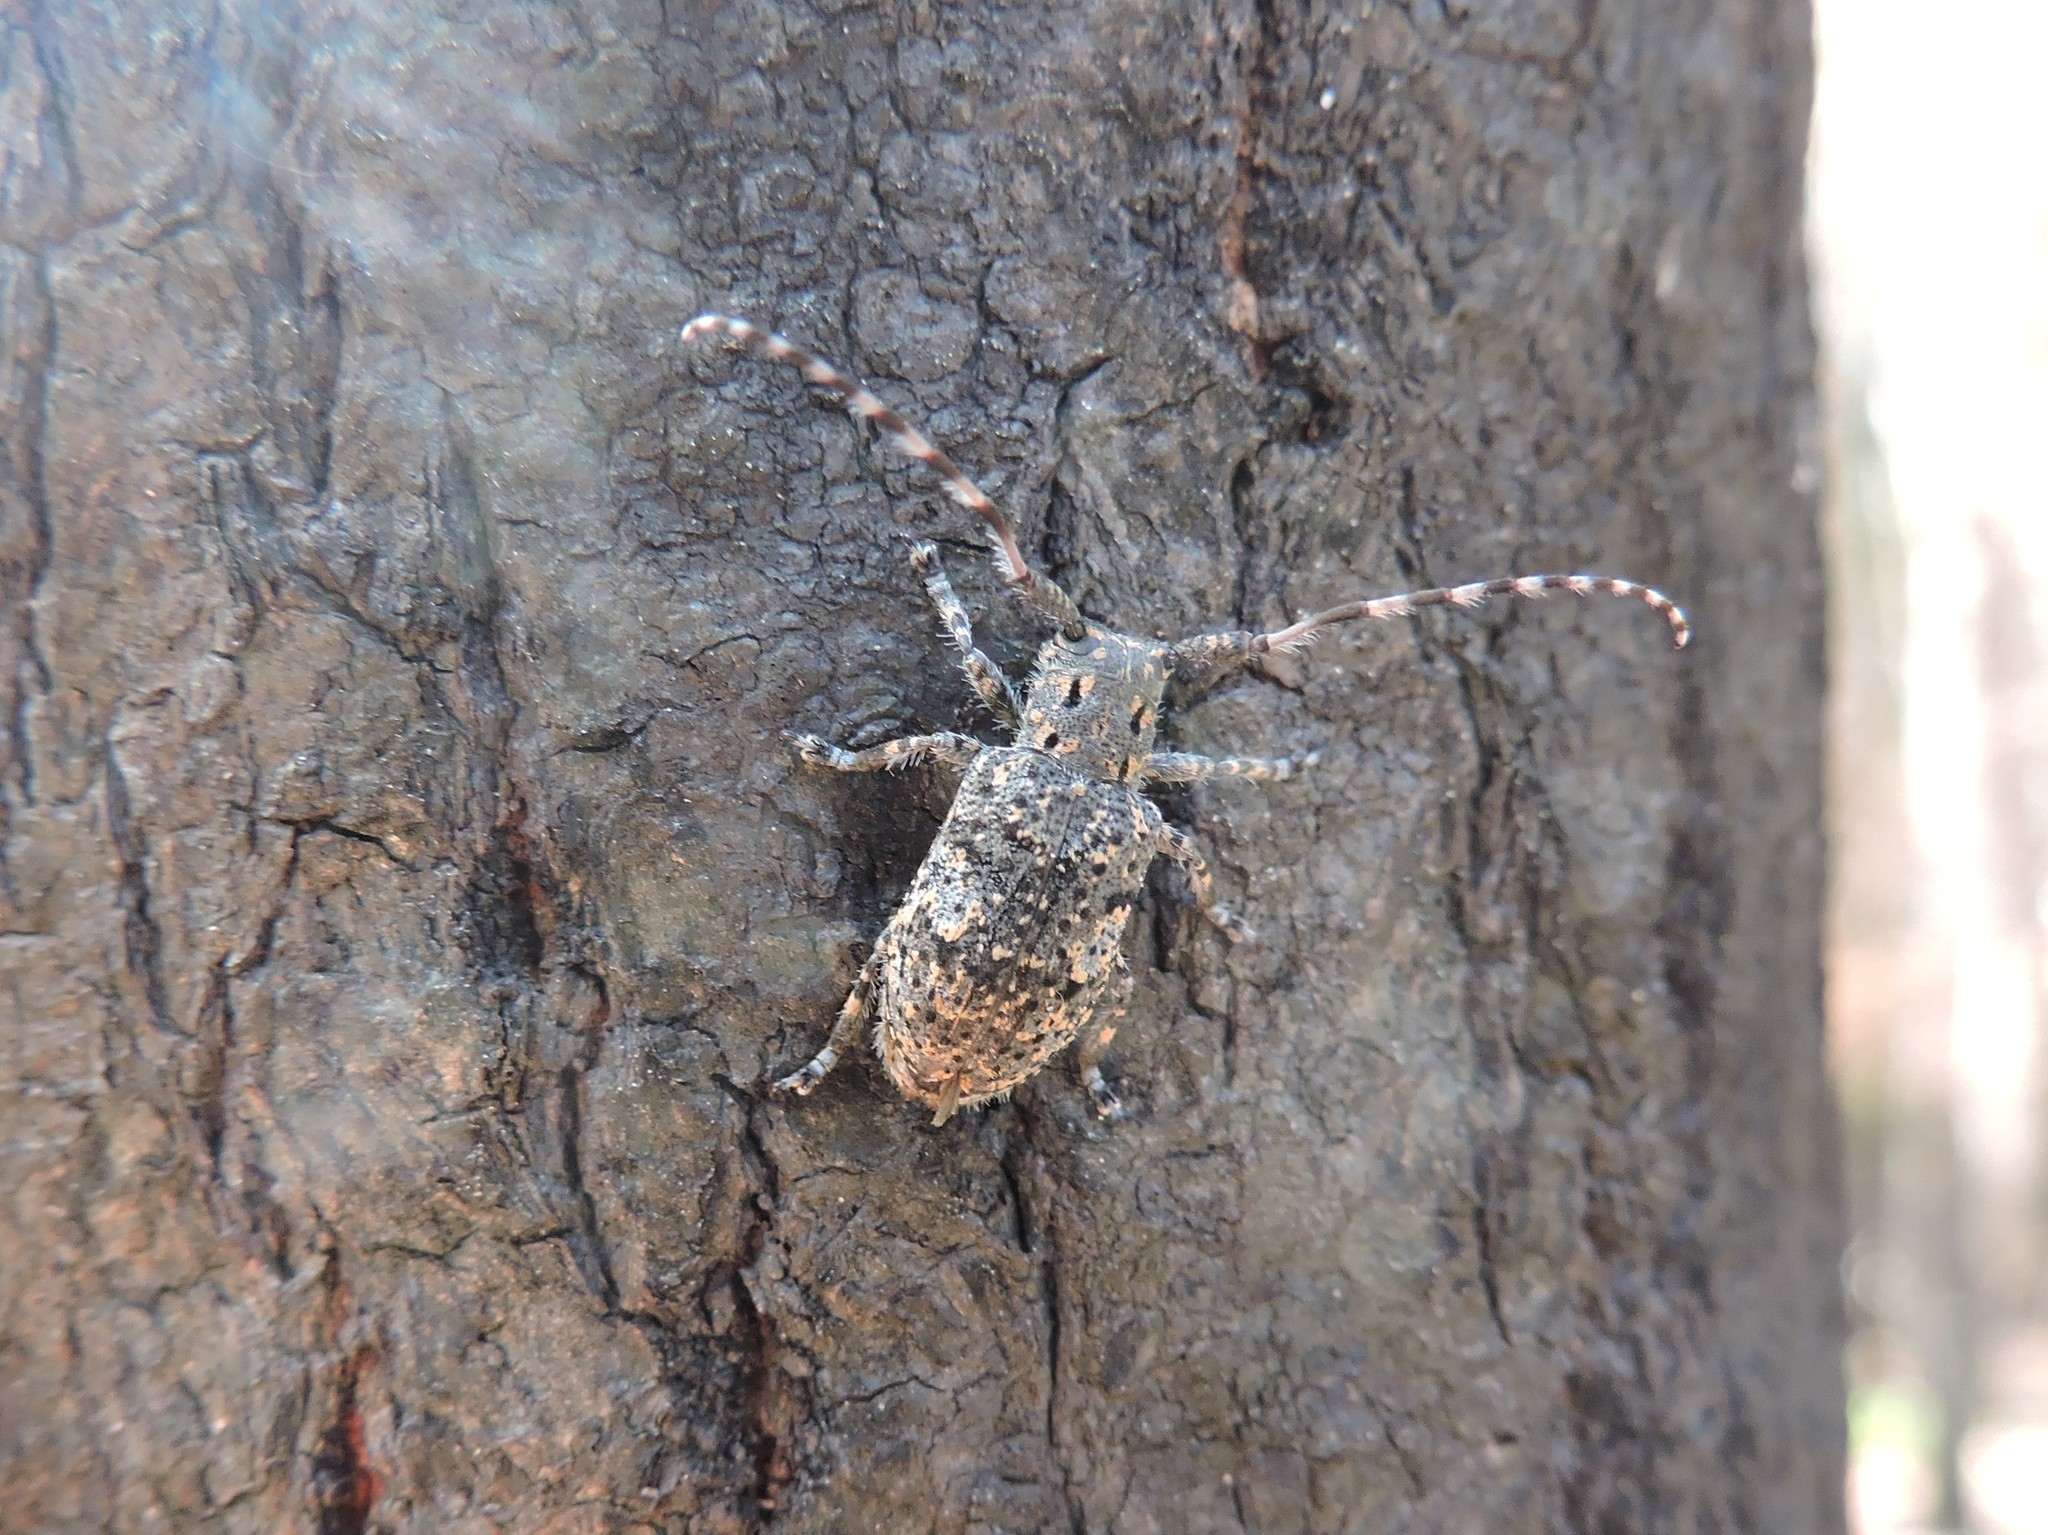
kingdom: Animalia
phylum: Arthropoda
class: Insecta
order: Coleoptera
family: Cerambycidae
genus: Mesosa
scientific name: Mesosa myops
